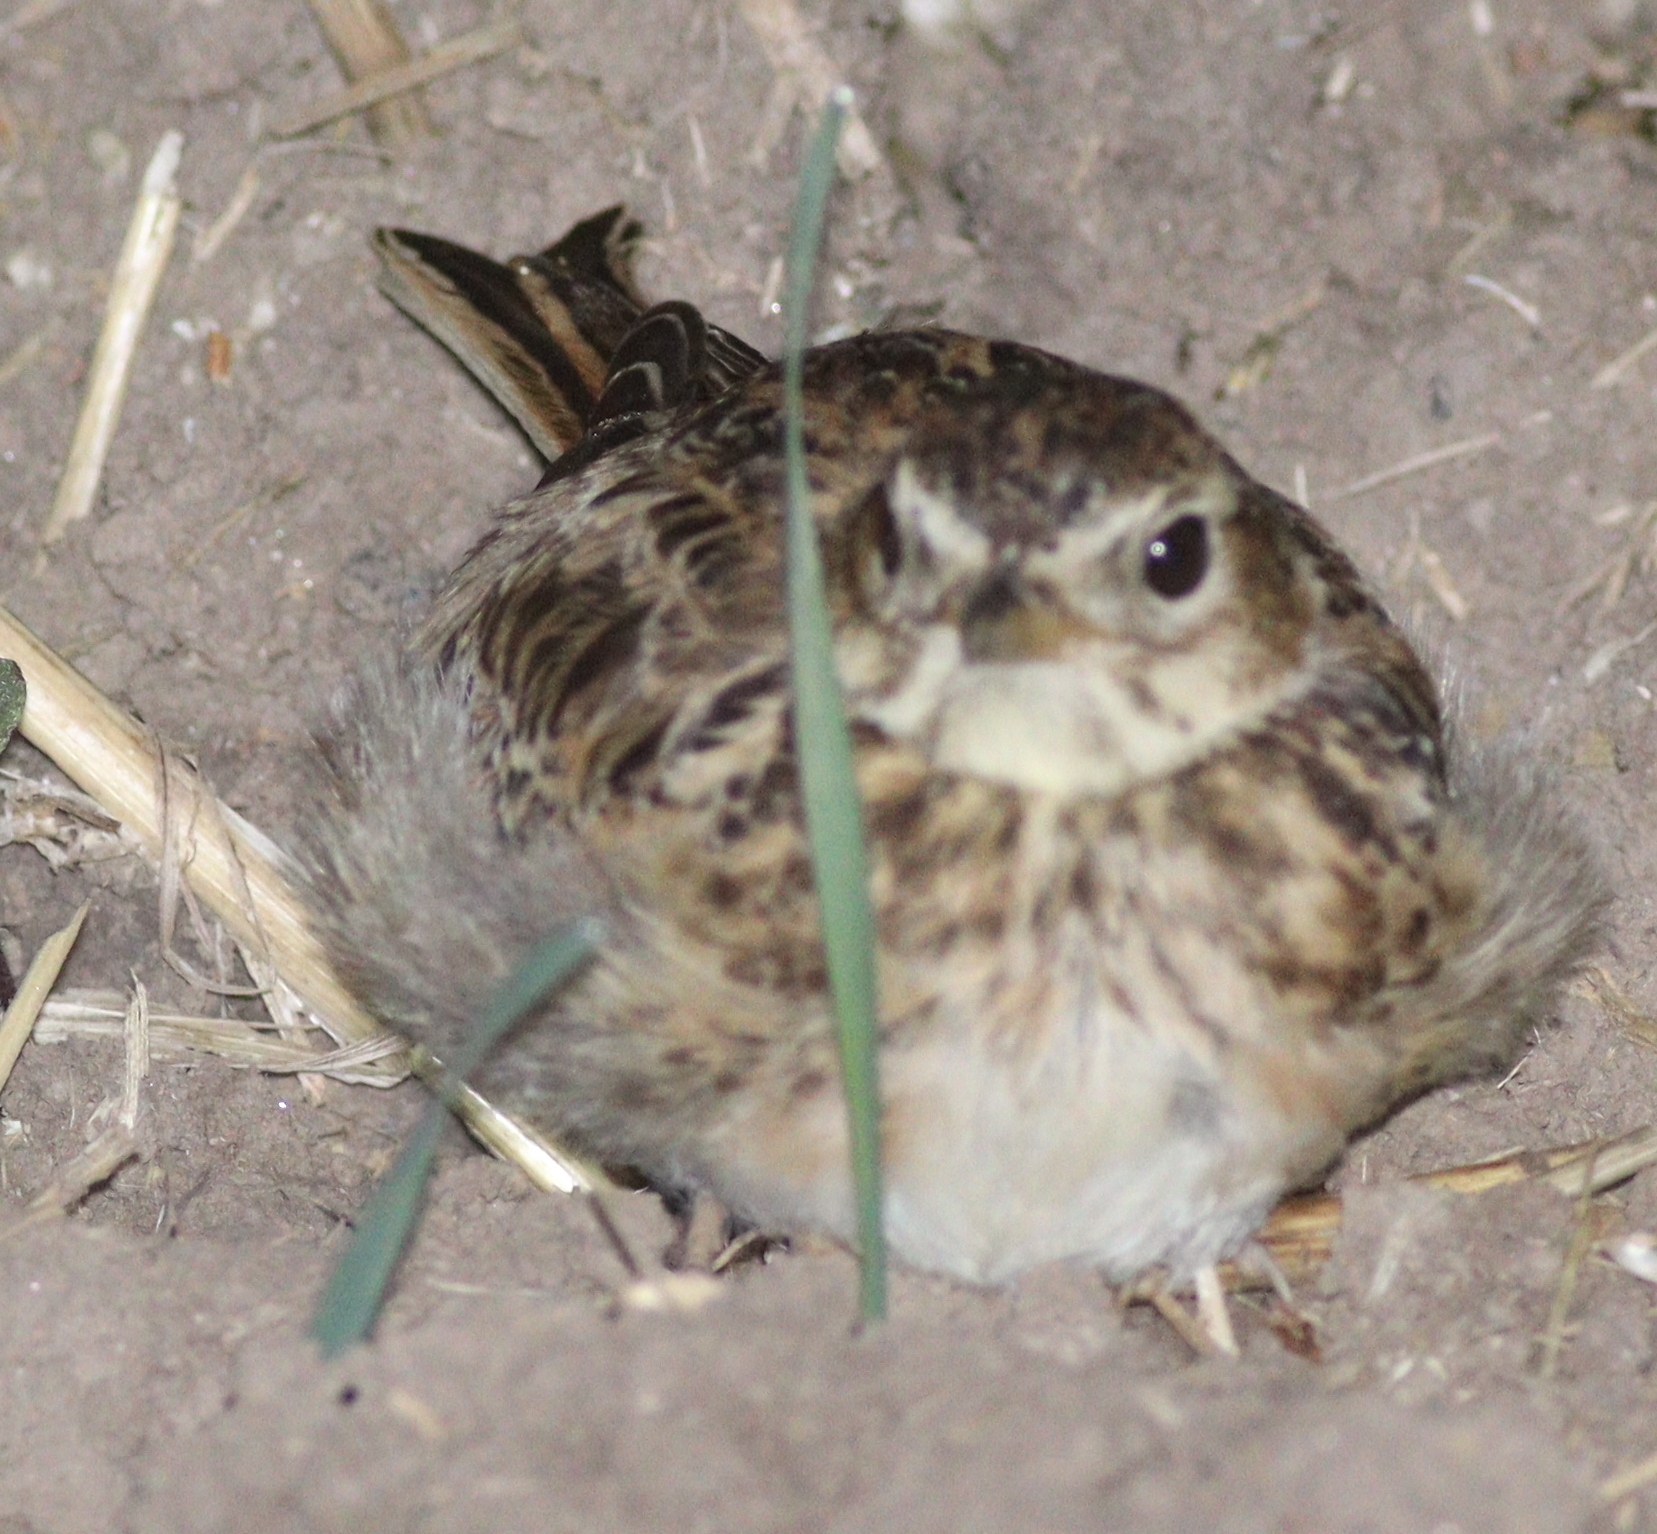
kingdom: Animalia
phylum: Chordata
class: Aves
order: Passeriformes
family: Alaudidae
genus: Alauda
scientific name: Alauda arvensis
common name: Eurasian skylark
